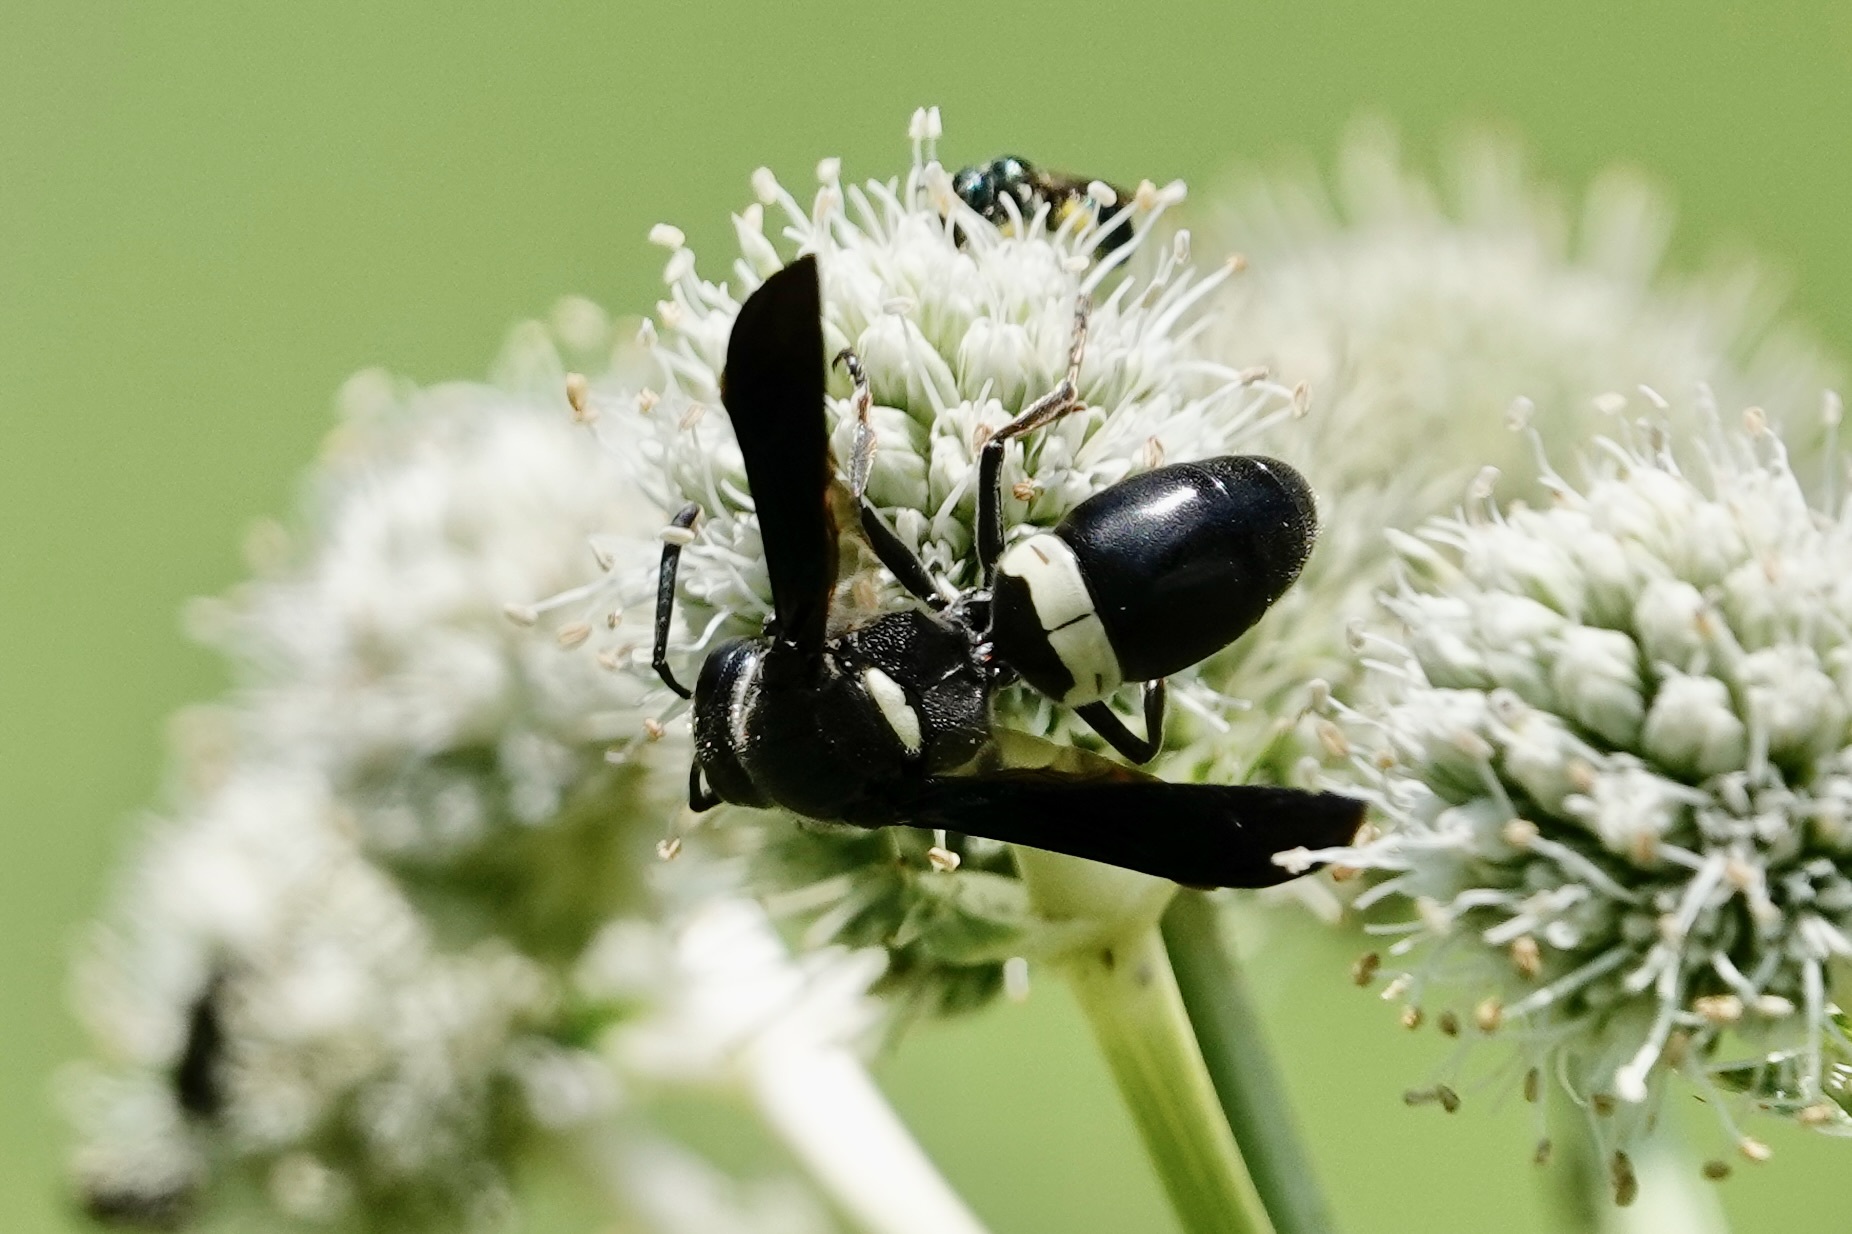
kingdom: Animalia
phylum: Arthropoda
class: Insecta
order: Hymenoptera
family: Eumenidae
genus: Monobia
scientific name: Monobia quadridens
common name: Four-toothed mason wasp
